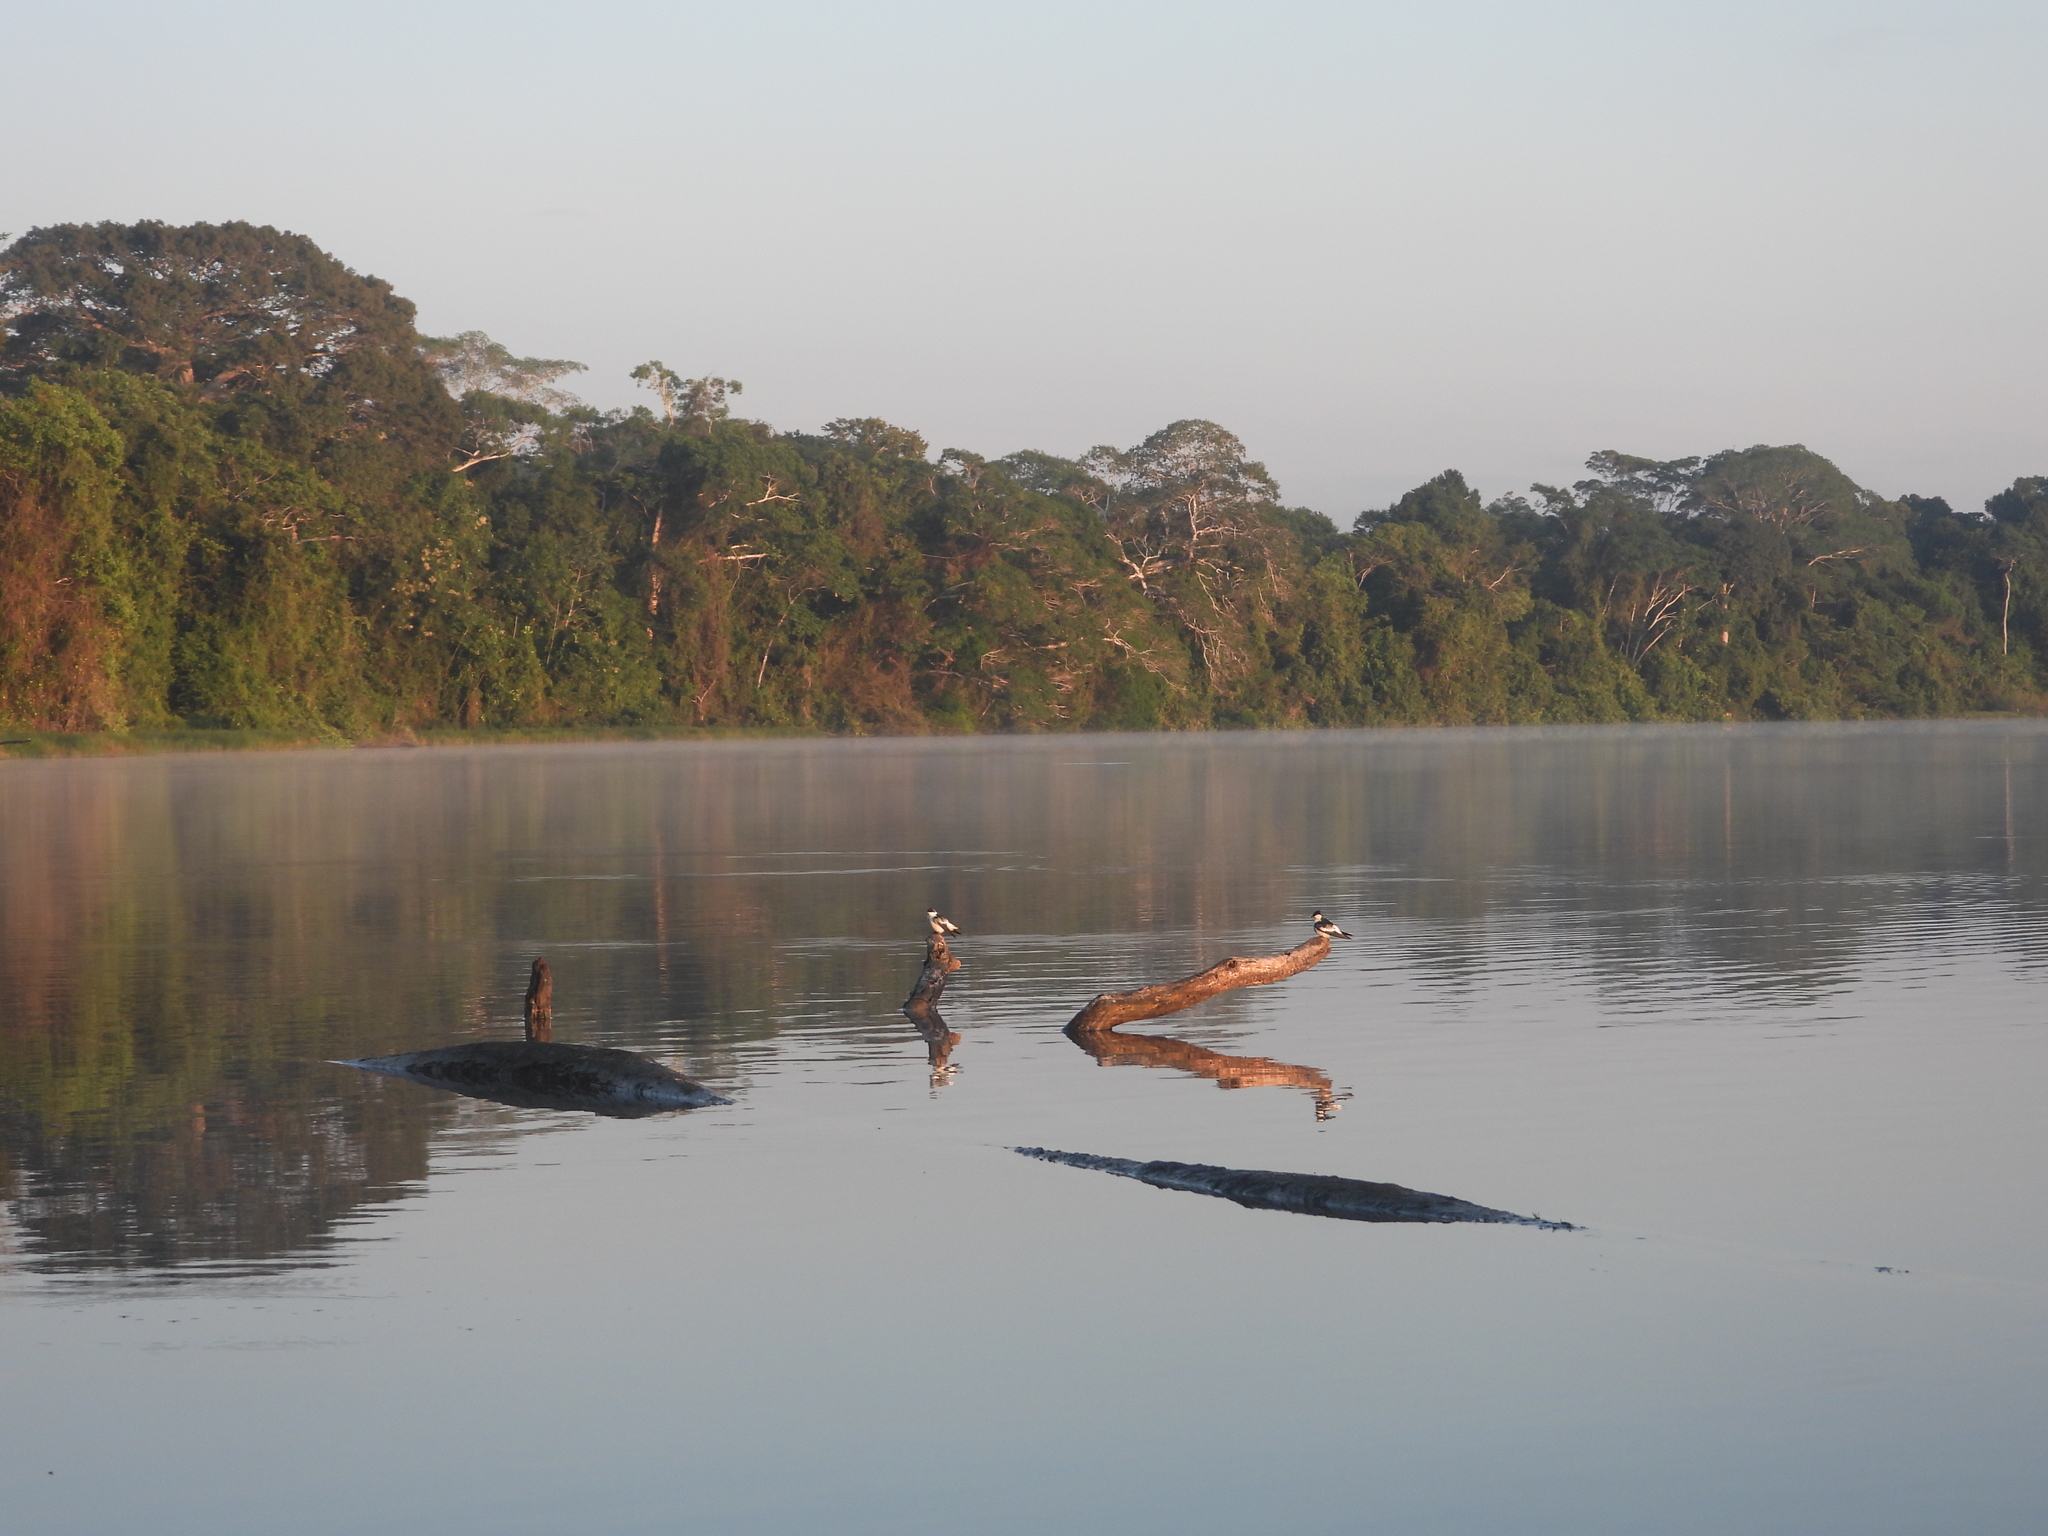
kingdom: Animalia
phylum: Chordata
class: Aves
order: Passeriformes
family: Hirundinidae
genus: Tachycineta
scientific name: Tachycineta albiventer
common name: White-winged swallow
